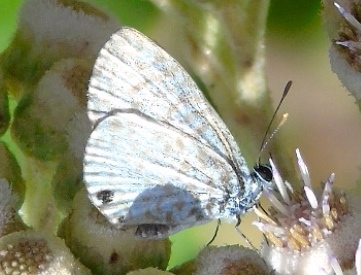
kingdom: Animalia
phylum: Arthropoda
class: Insecta
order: Lepidoptera
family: Lycaenidae
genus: Leptotes
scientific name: Leptotes
